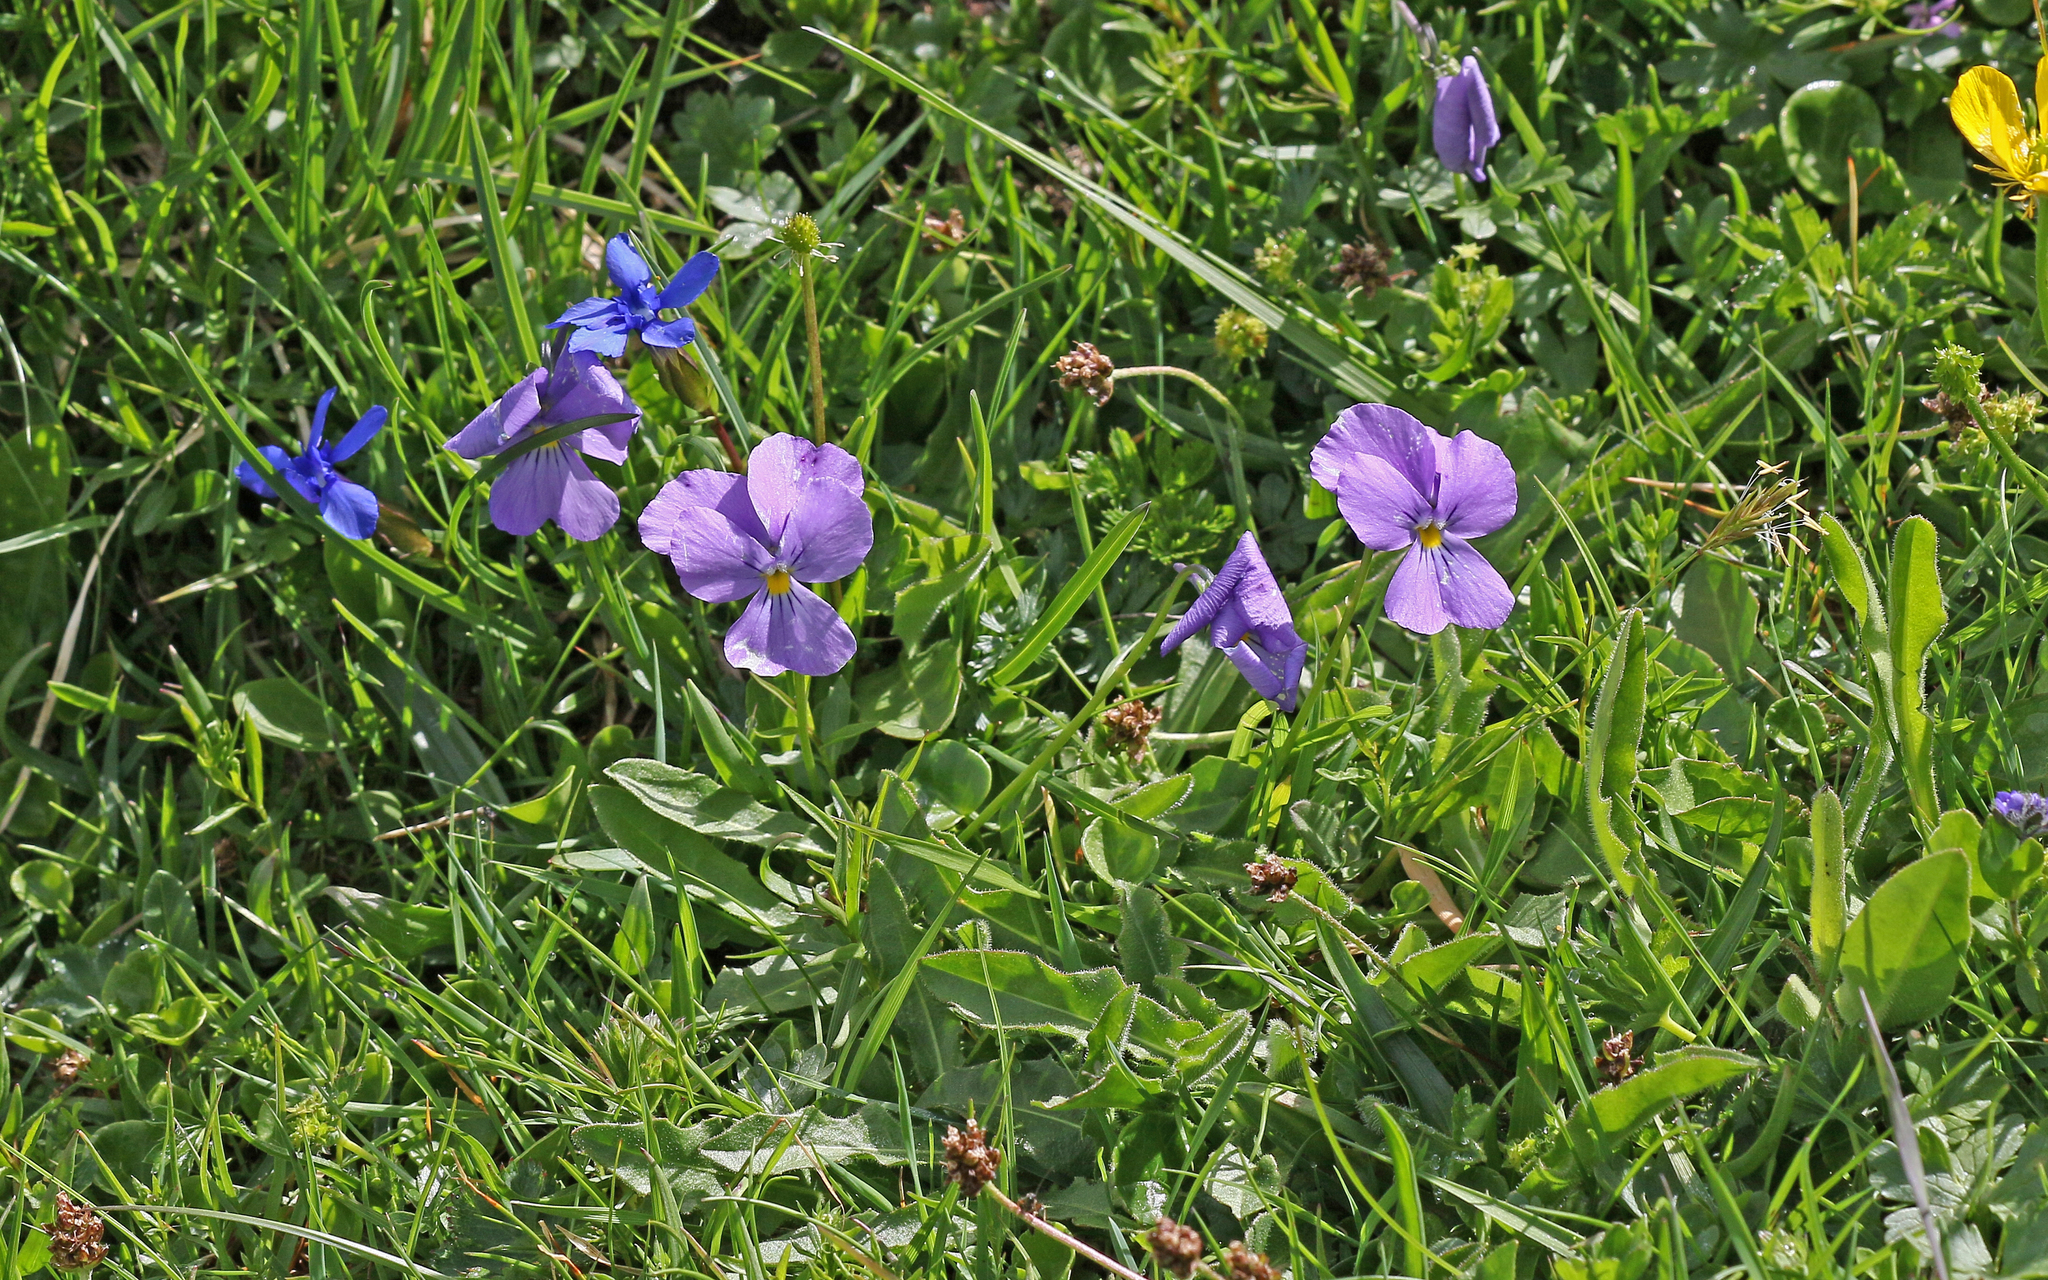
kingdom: Plantae
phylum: Tracheophyta
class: Magnoliopsida
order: Malpighiales
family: Violaceae
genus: Viola
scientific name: Viola calcarata
